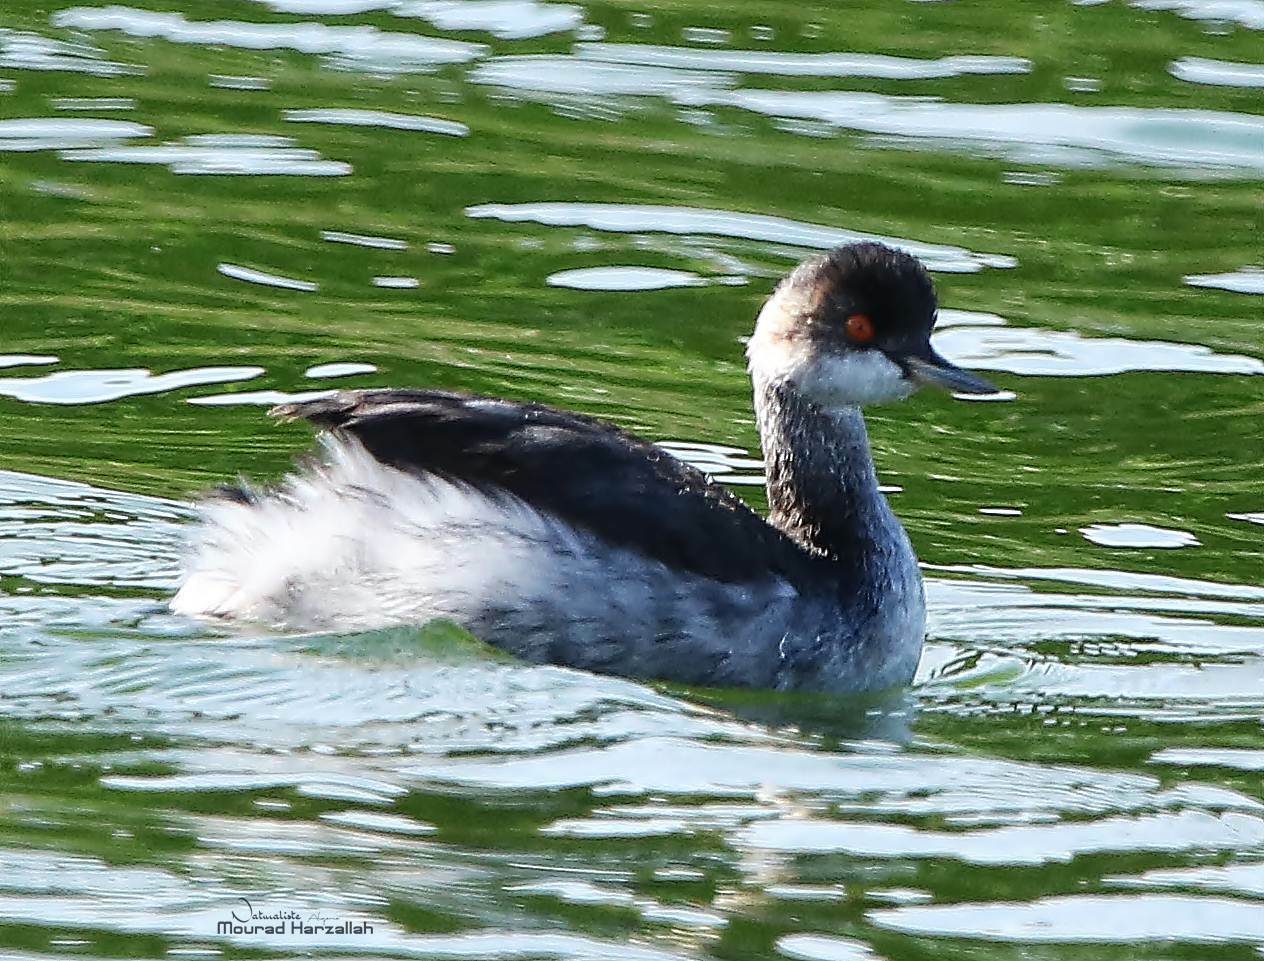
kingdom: Animalia
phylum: Chordata
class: Aves
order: Podicipediformes
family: Podicipedidae
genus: Podiceps
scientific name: Podiceps nigricollis
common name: Black-necked grebe
